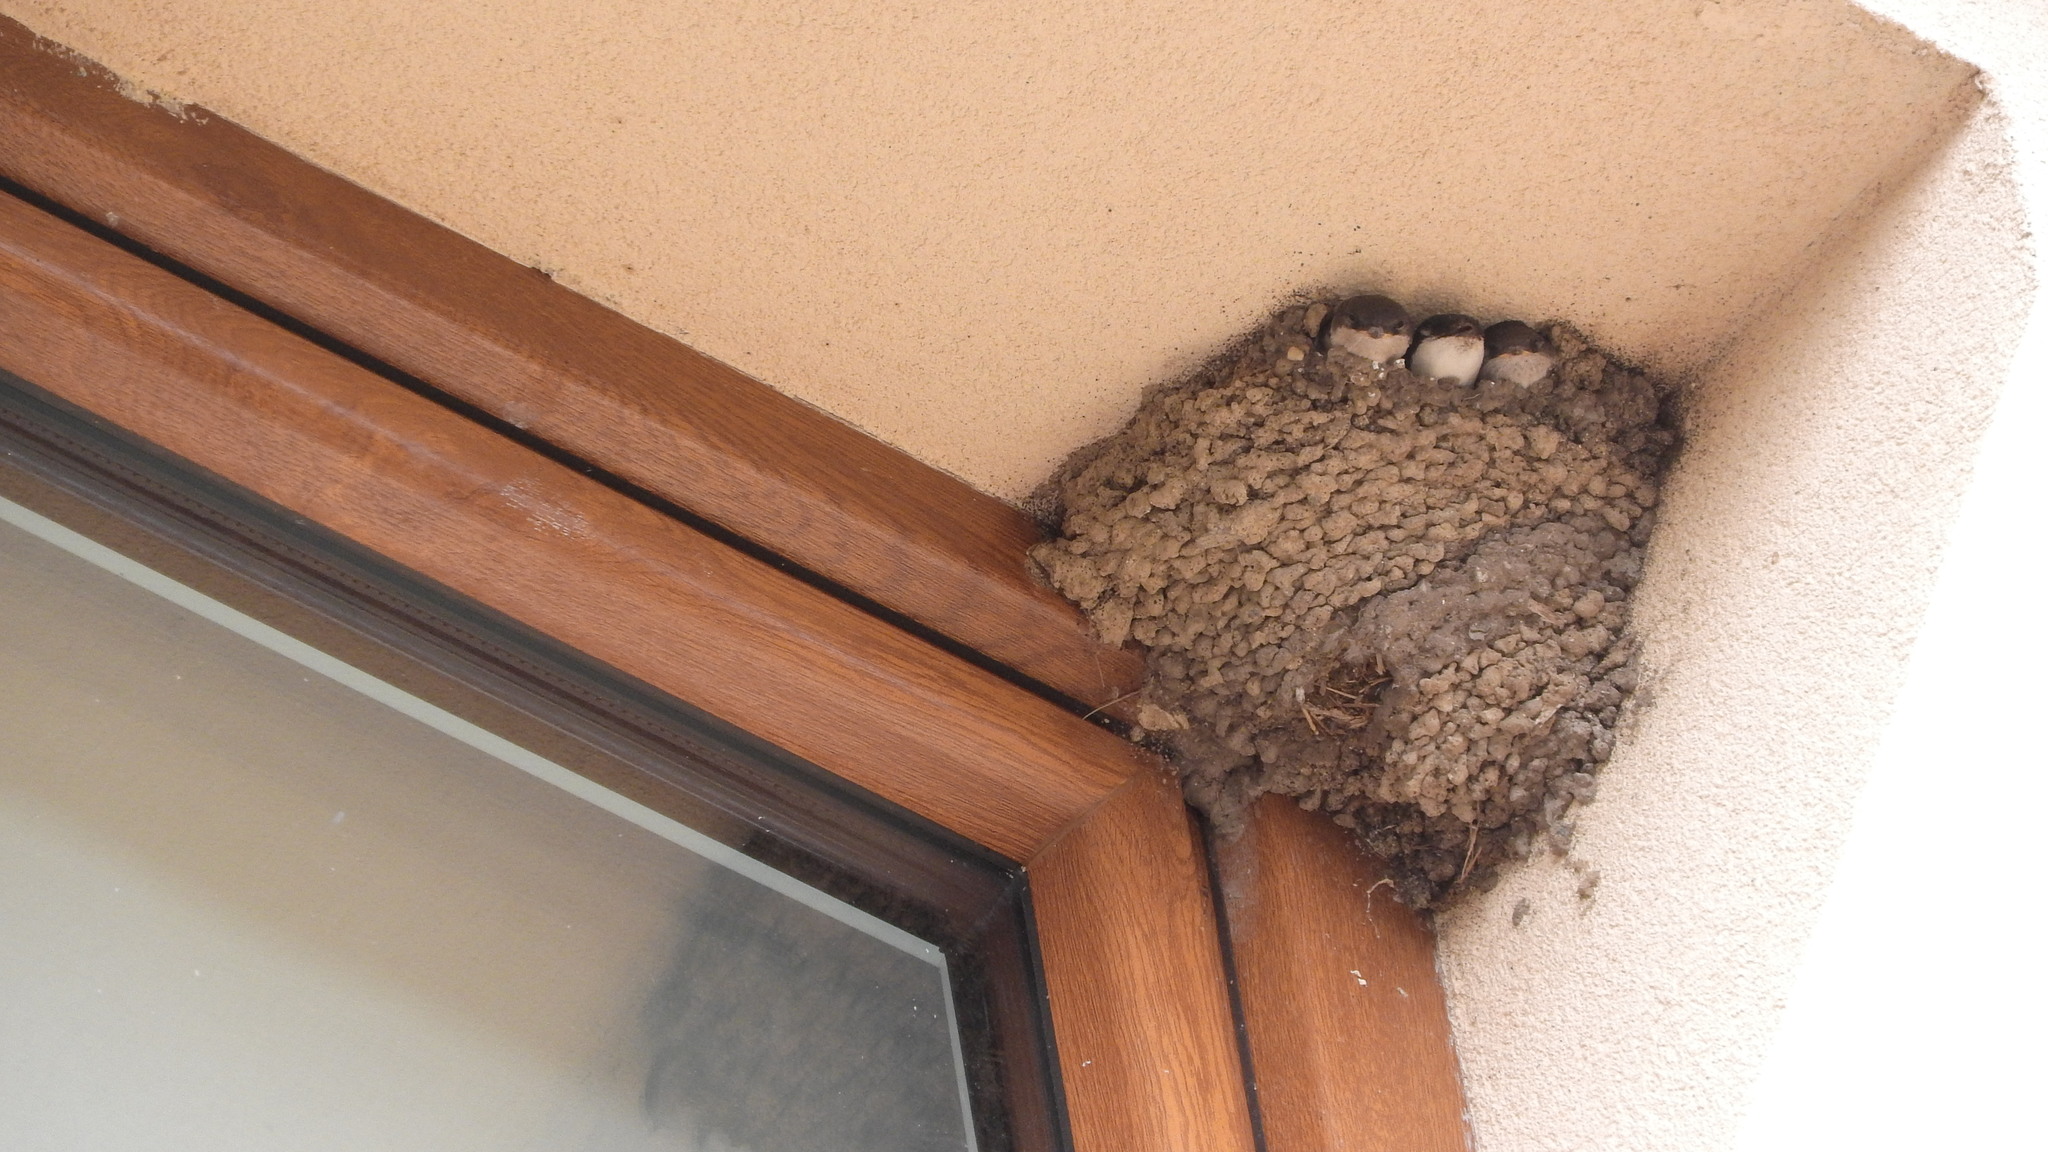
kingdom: Animalia
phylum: Chordata
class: Aves
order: Passeriformes
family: Hirundinidae
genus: Delichon
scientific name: Delichon urbicum
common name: Common house martin
